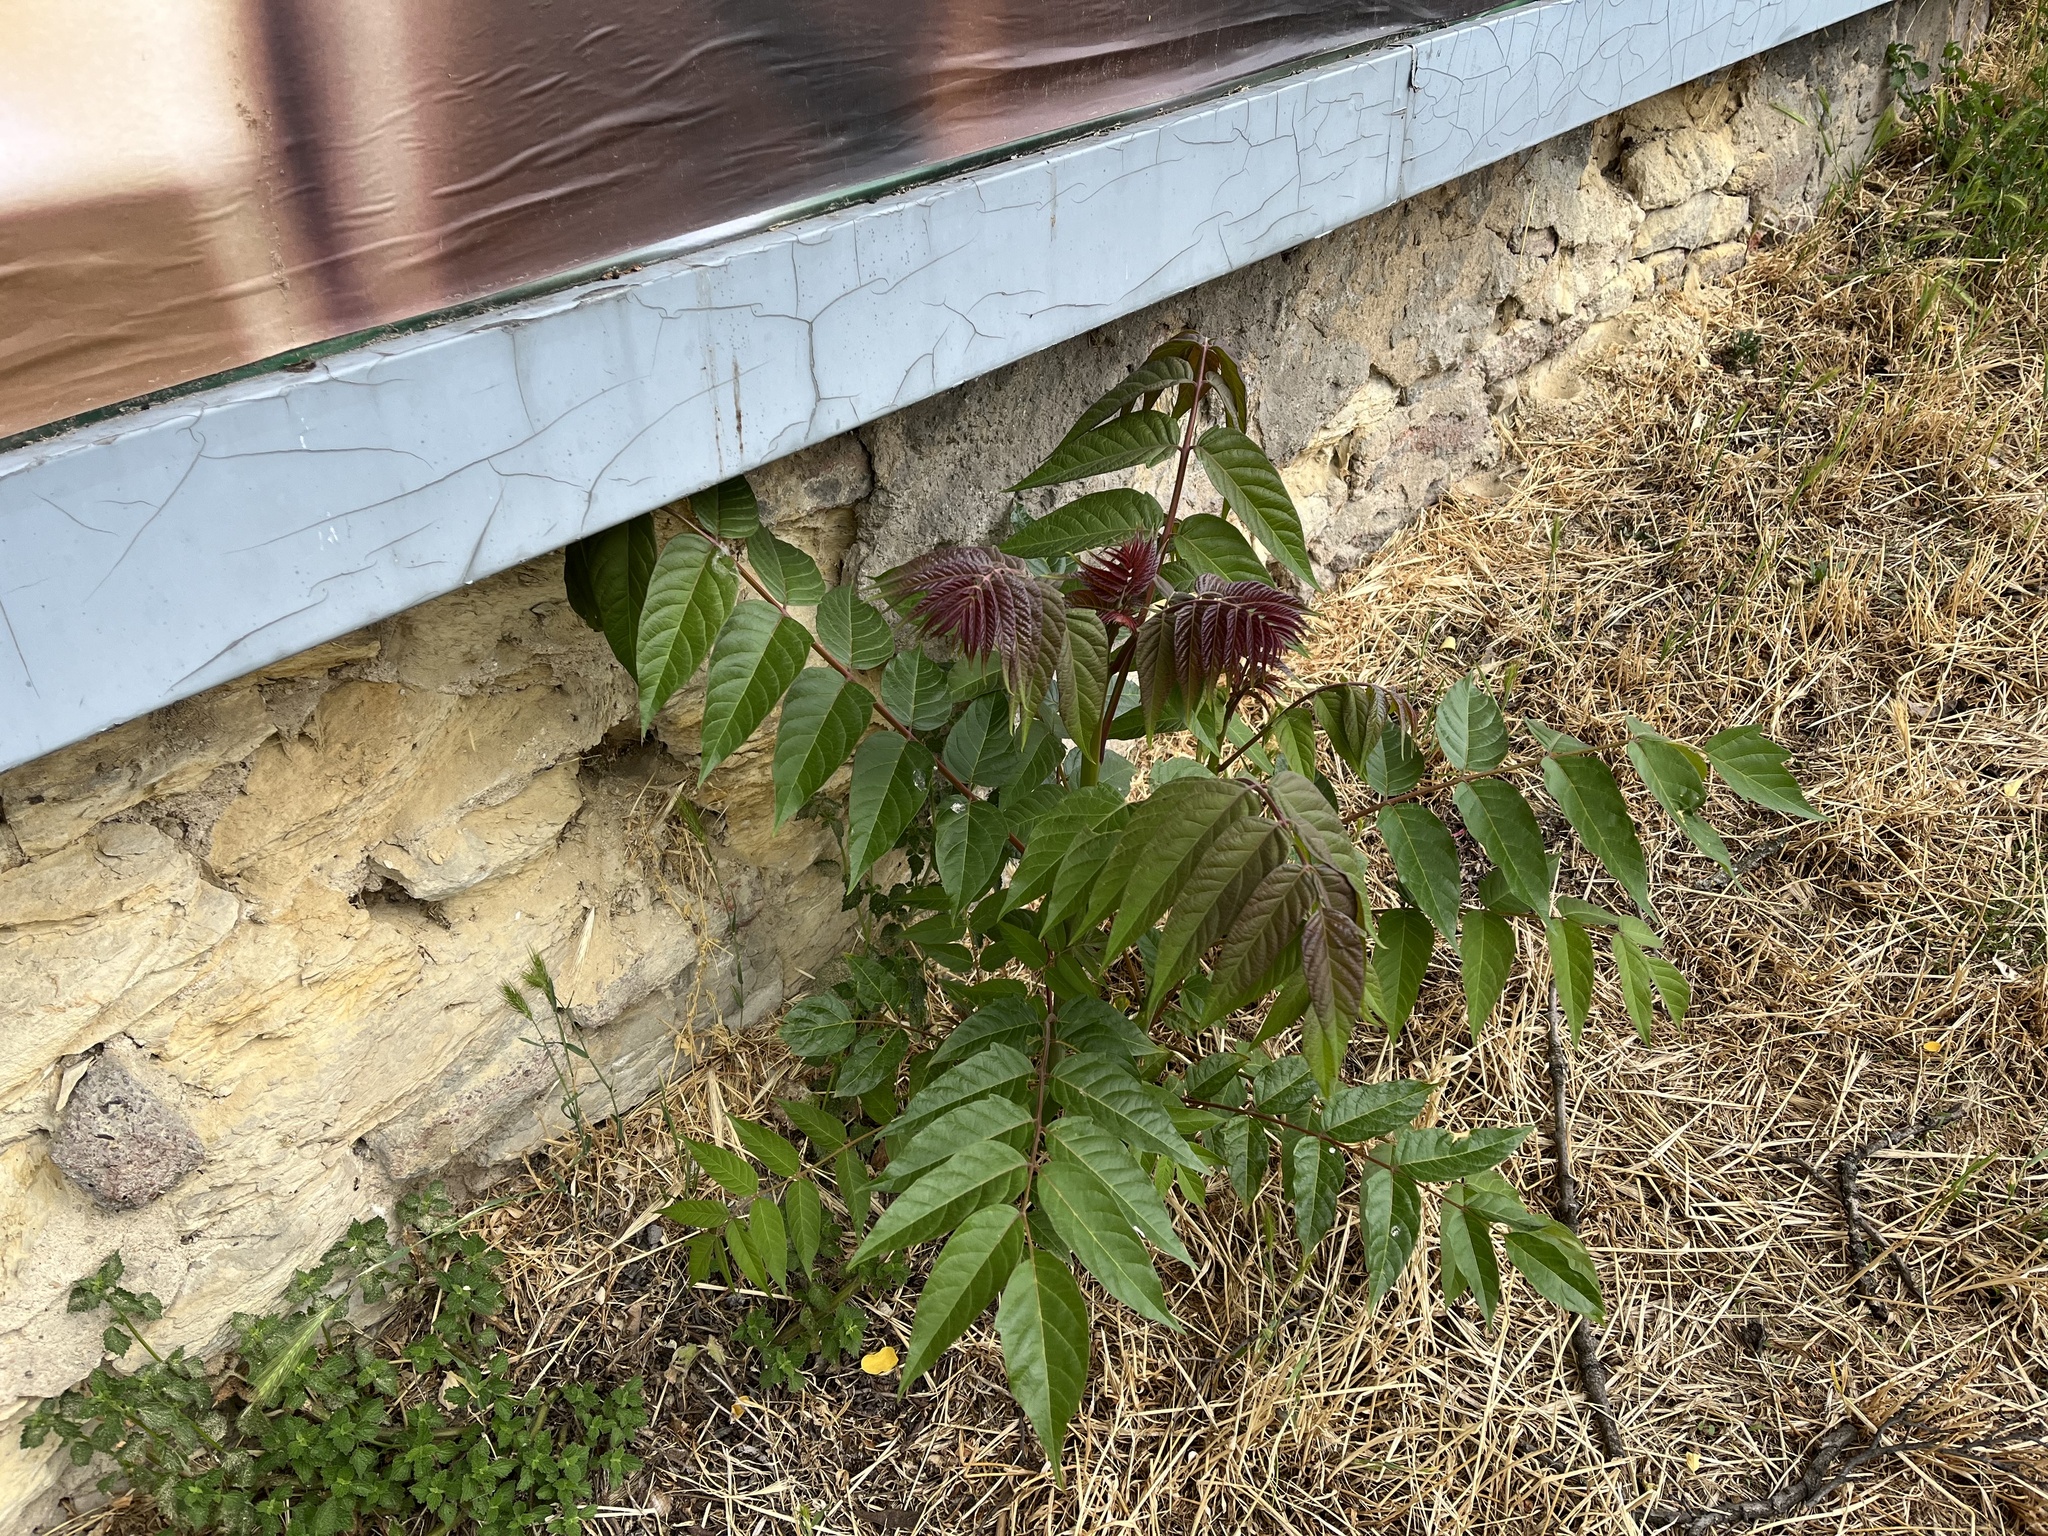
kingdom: Plantae
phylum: Tracheophyta
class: Magnoliopsida
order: Sapindales
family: Simaroubaceae
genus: Ailanthus
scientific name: Ailanthus altissima
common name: Tree-of-heaven
